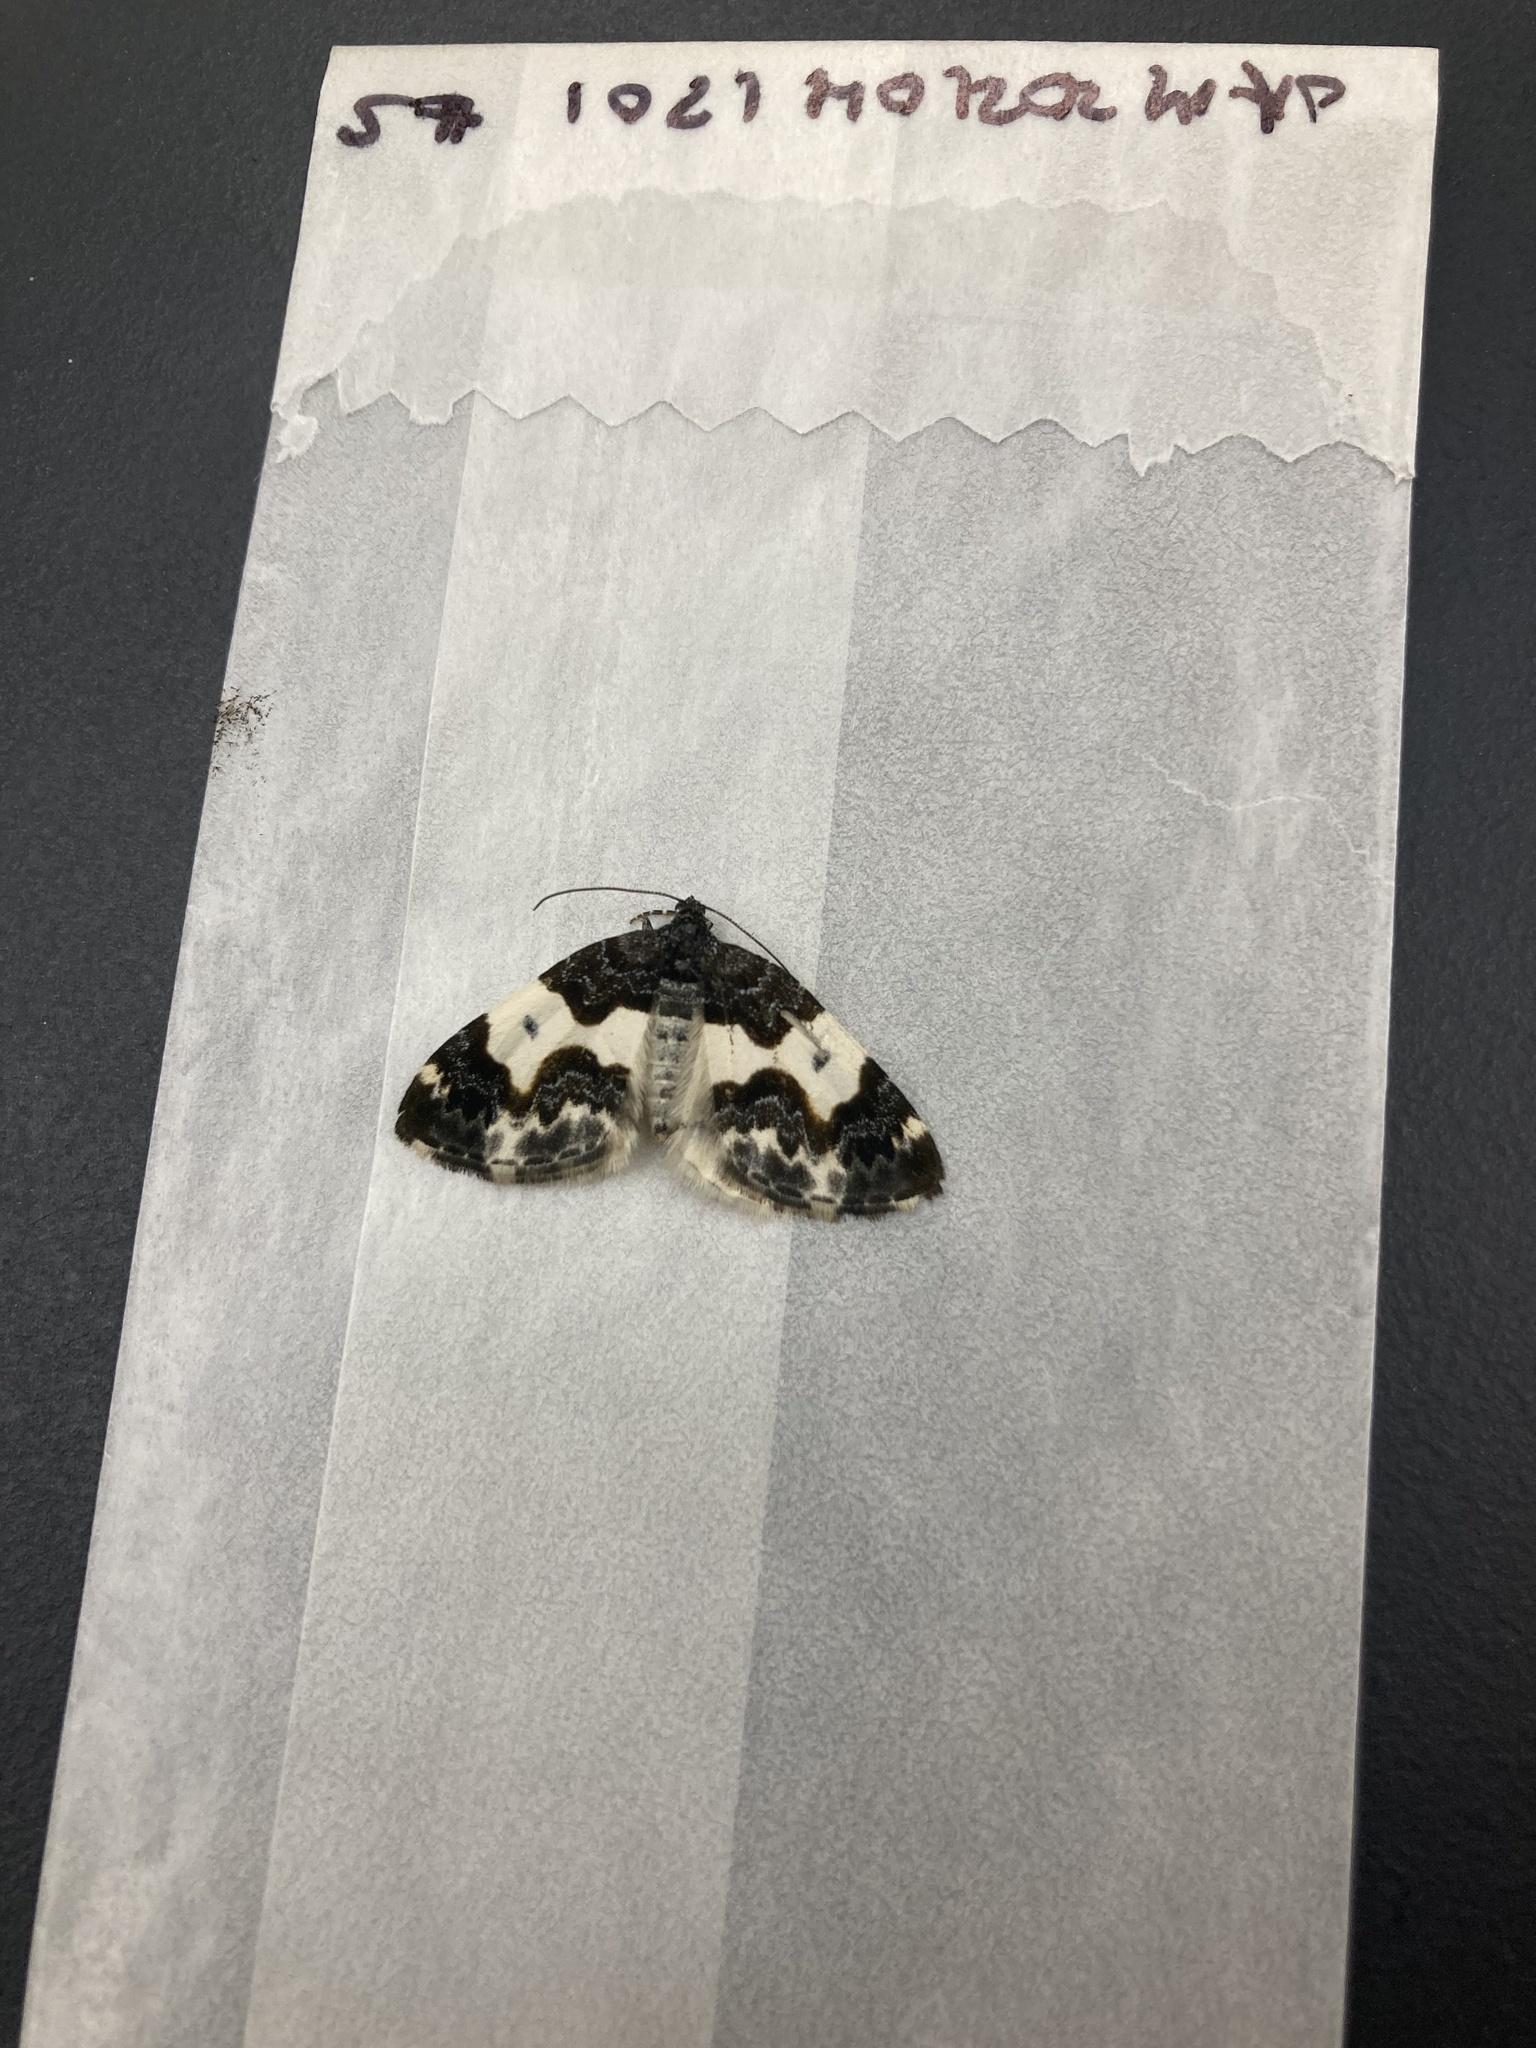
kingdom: Animalia
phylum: Arthropoda
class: Insecta
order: Lepidoptera
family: Geometridae
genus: Mesoleuca
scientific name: Mesoleuca gratulata
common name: Half-white carpet moth
